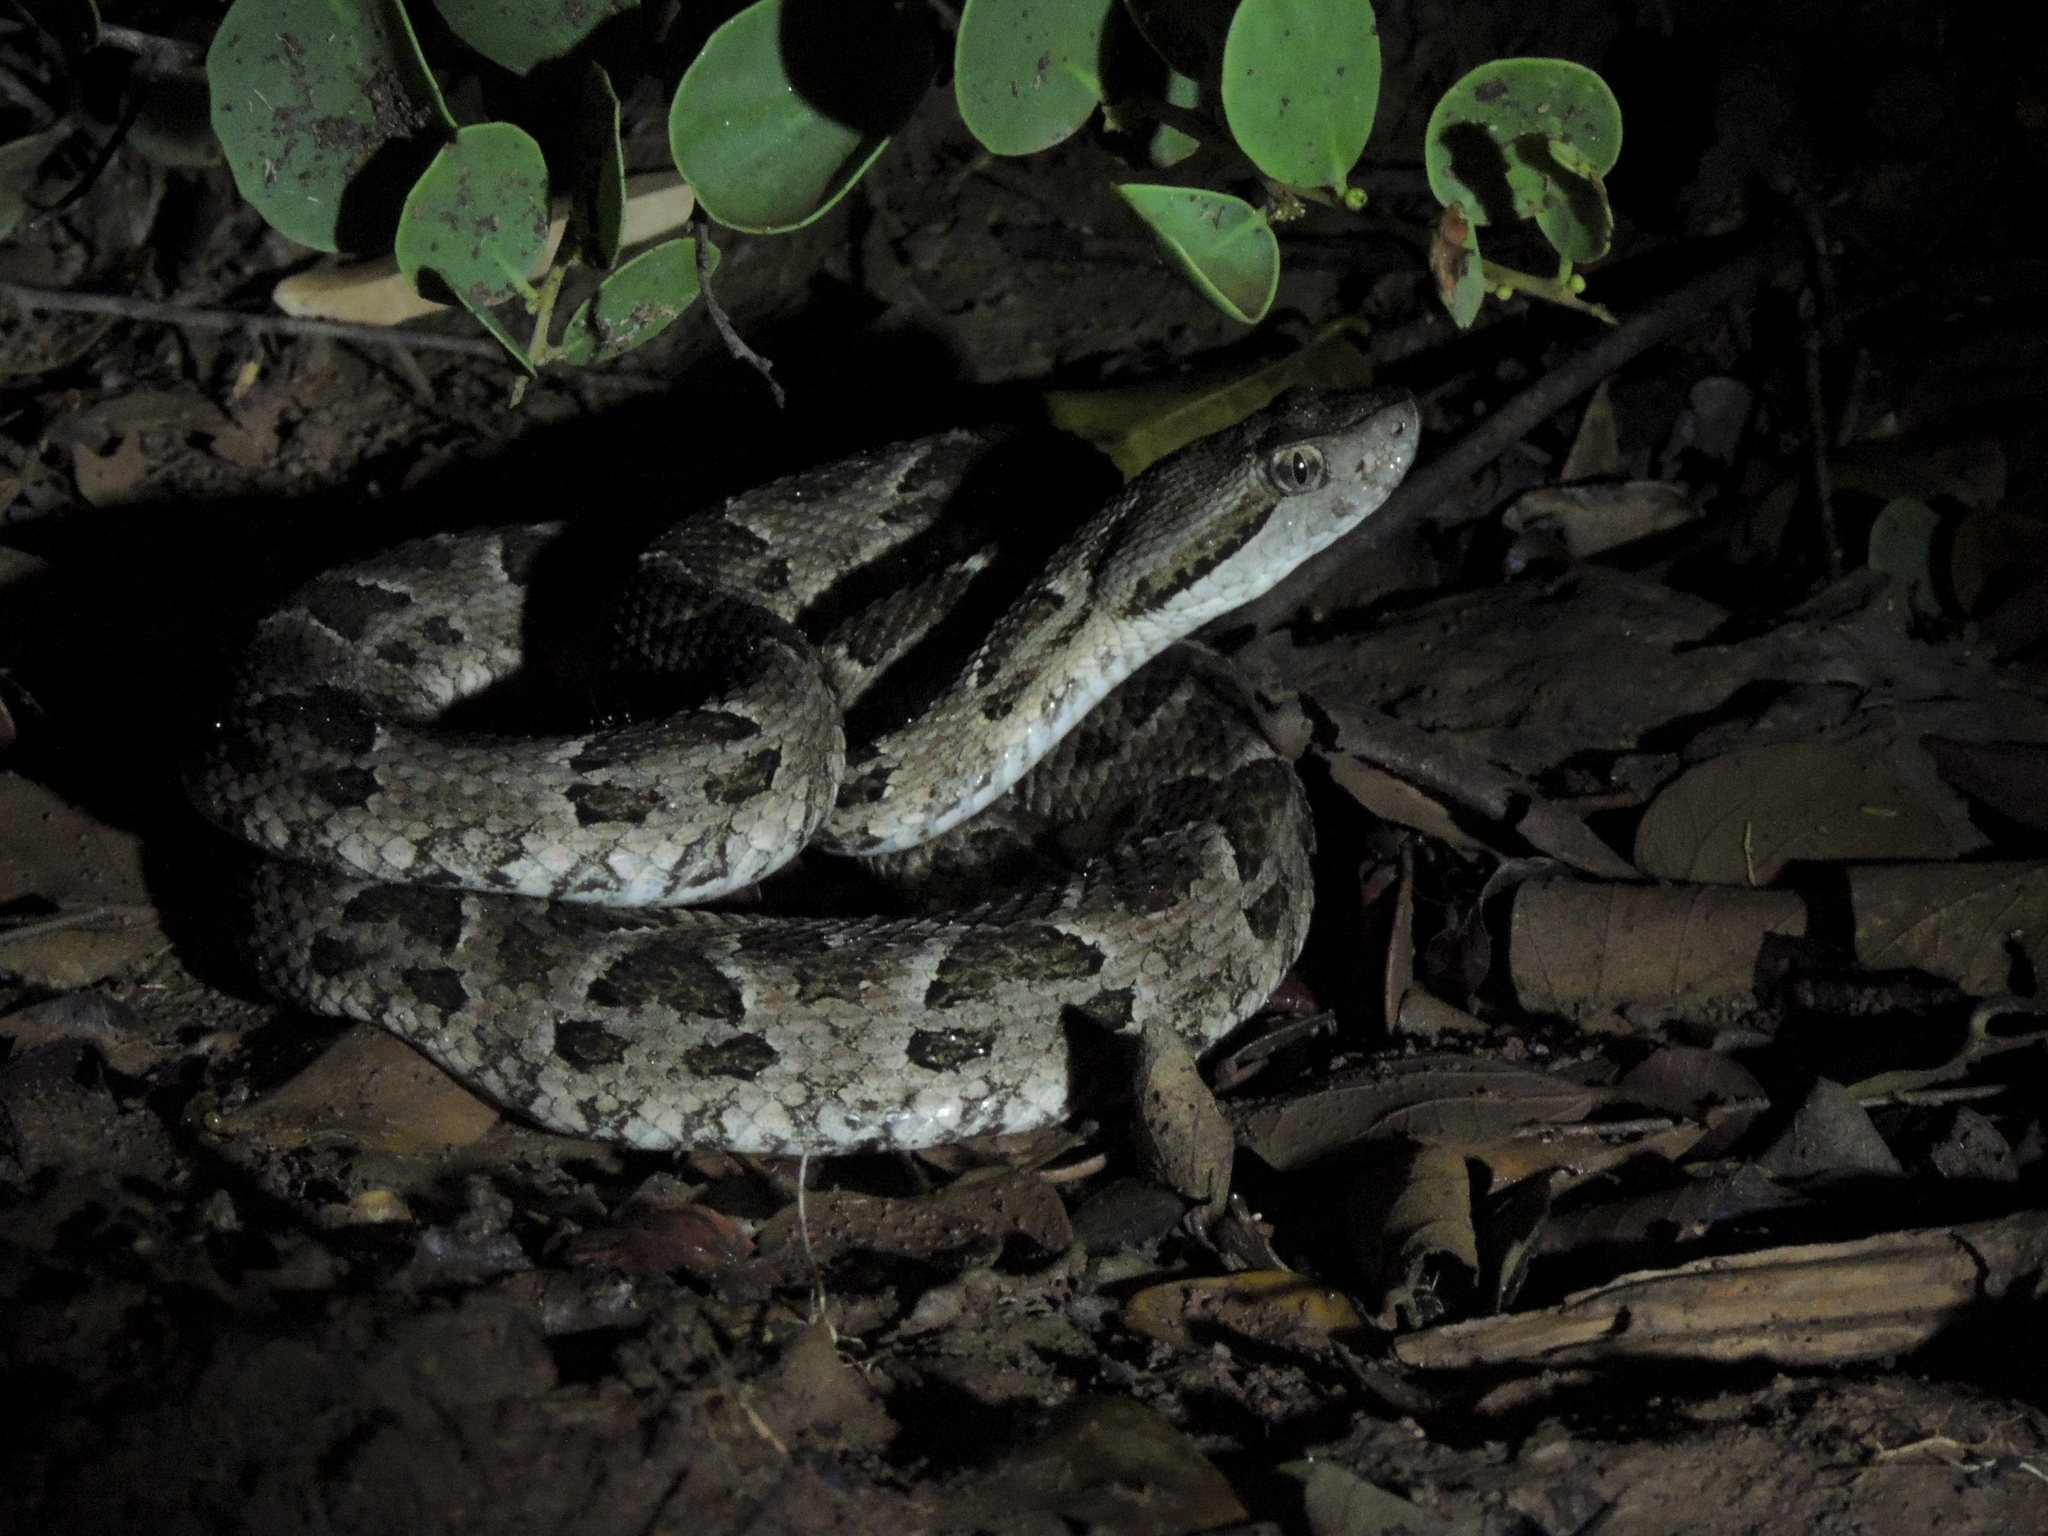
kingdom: Animalia
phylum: Chordata
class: Squamata
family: Viperidae
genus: Bothrops
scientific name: Bothrops diporus
